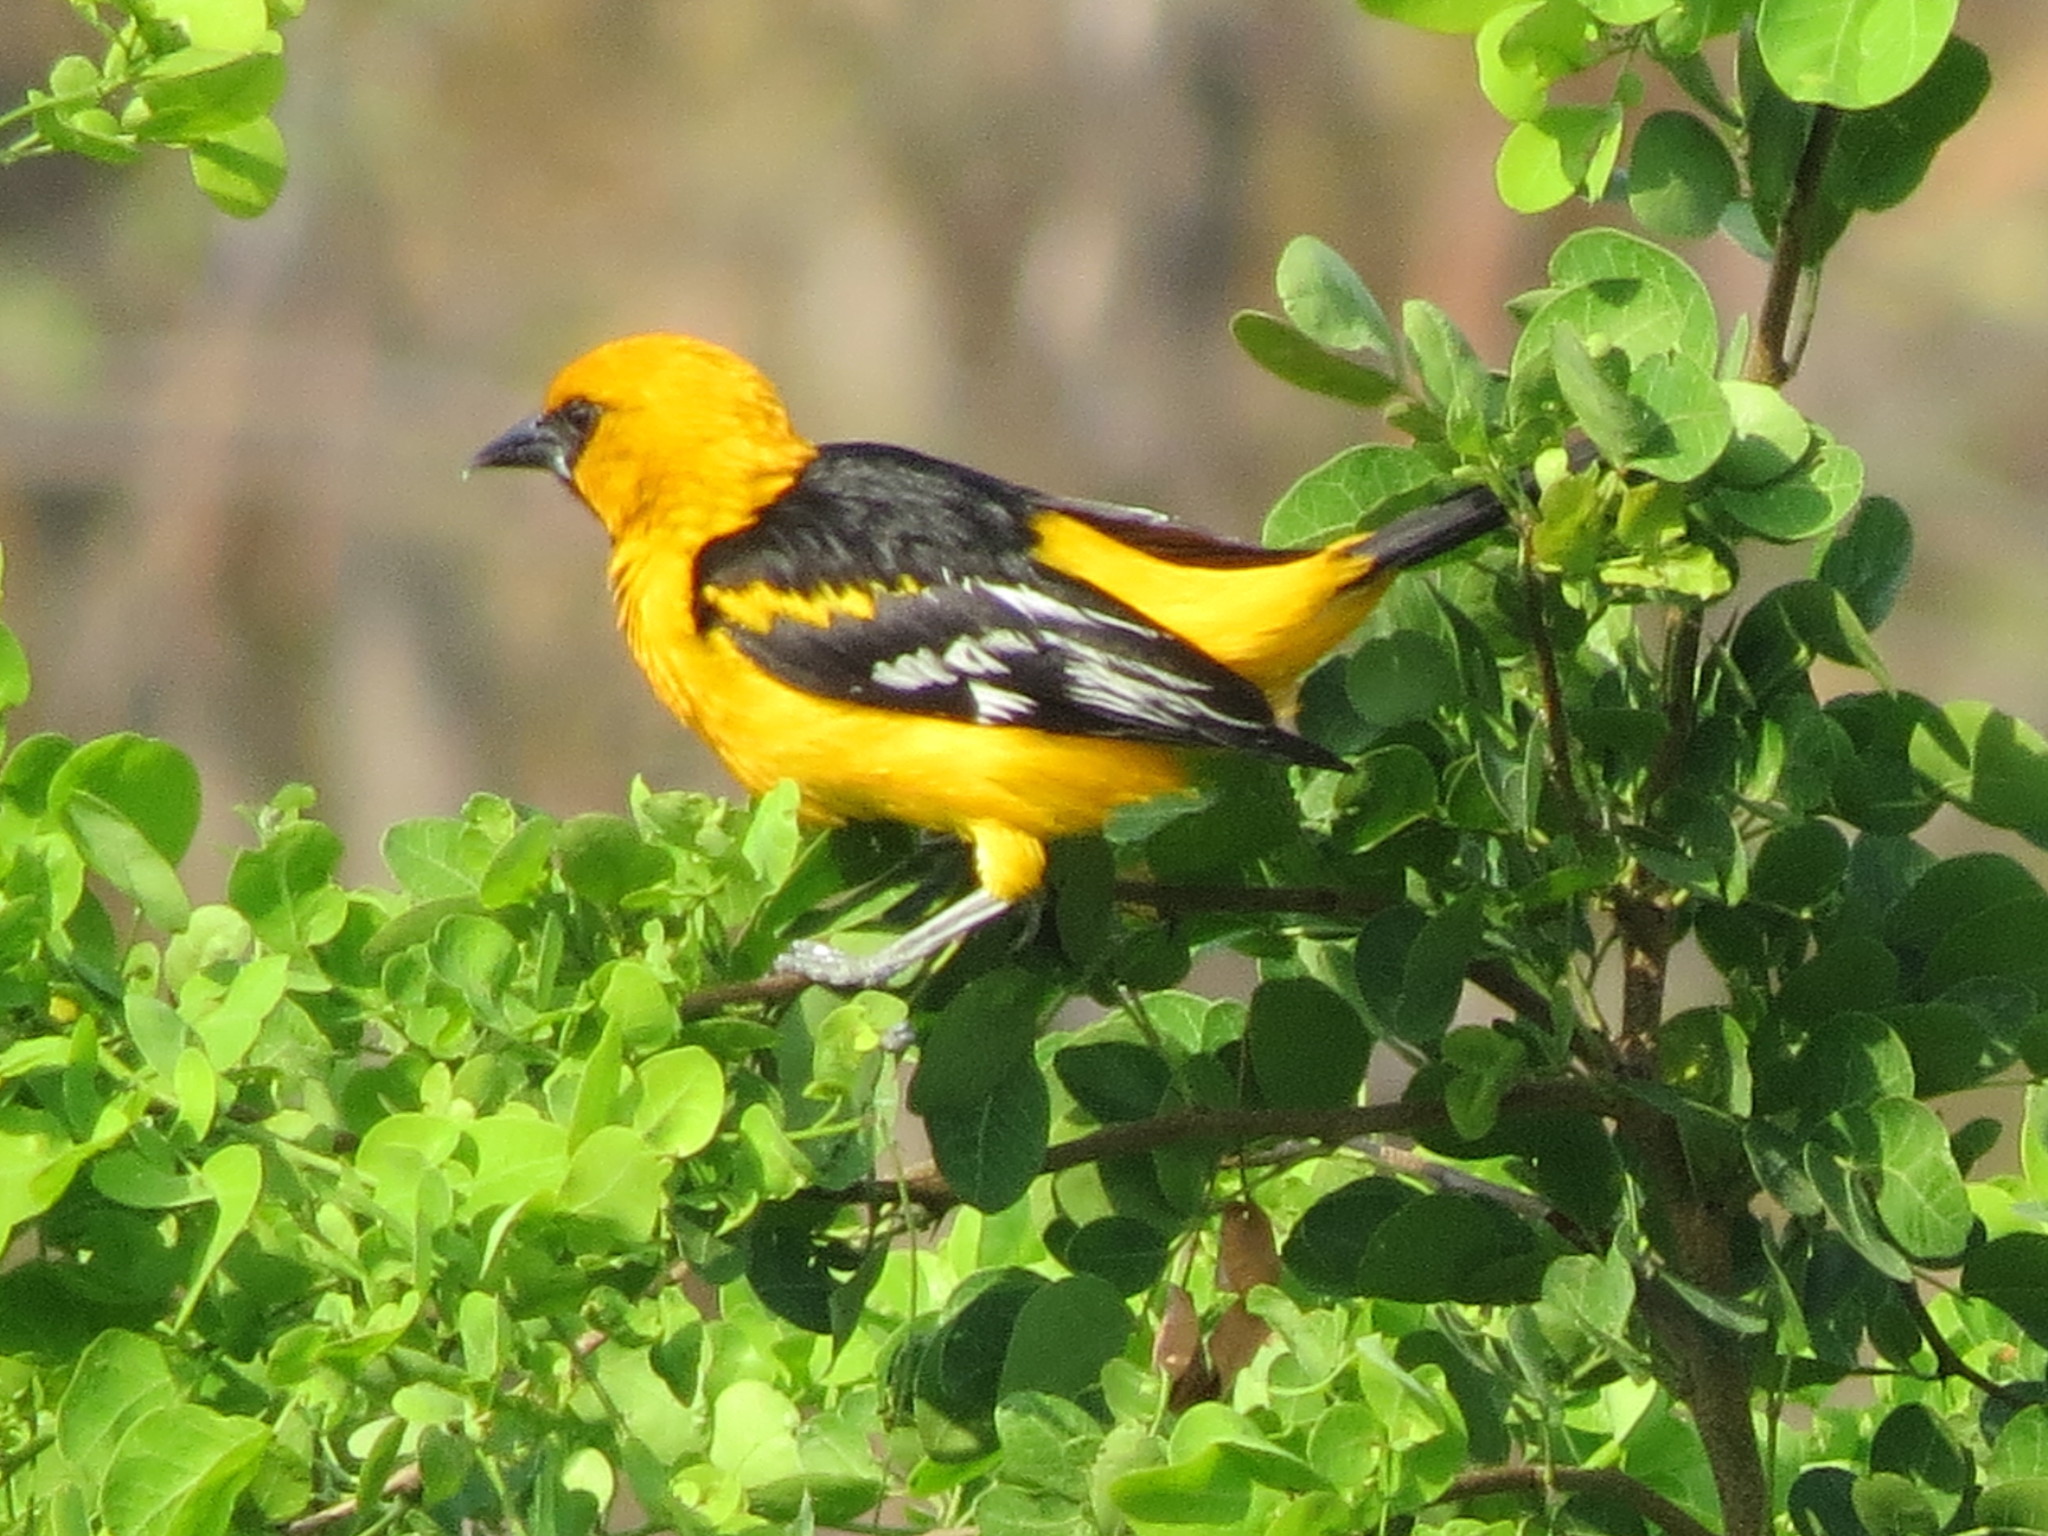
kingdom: Animalia
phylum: Chordata
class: Aves
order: Passeriformes
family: Icteridae
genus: Icterus
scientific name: Icterus gularis
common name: Altamira oriole
